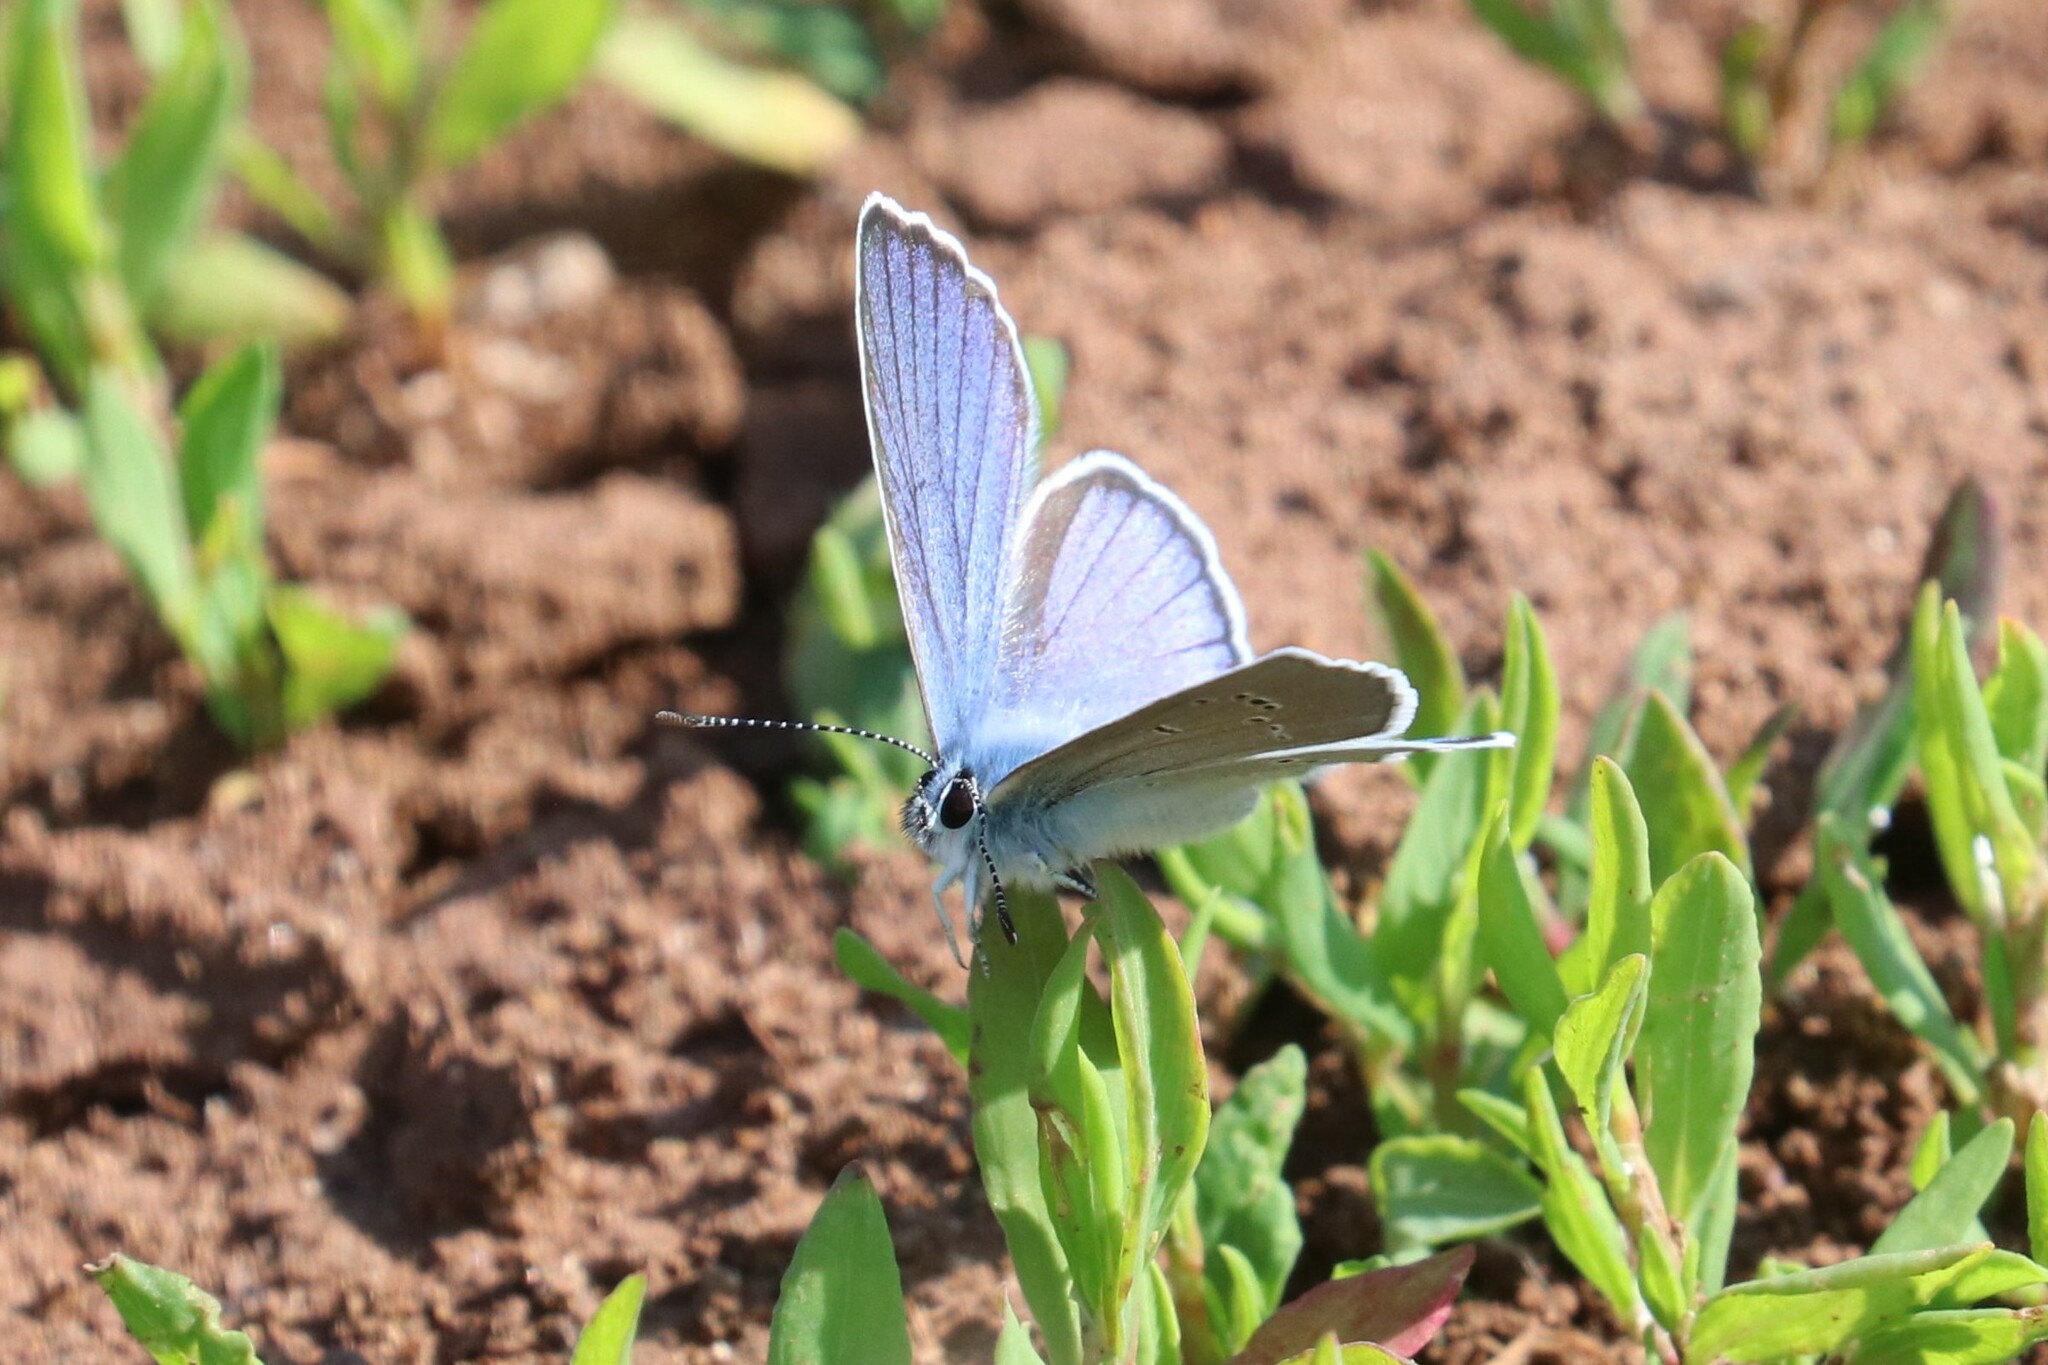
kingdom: Animalia
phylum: Arthropoda
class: Insecta
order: Lepidoptera
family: Lycaenidae
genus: Cyaniris
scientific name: Cyaniris semiargus
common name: Mazarine blue
